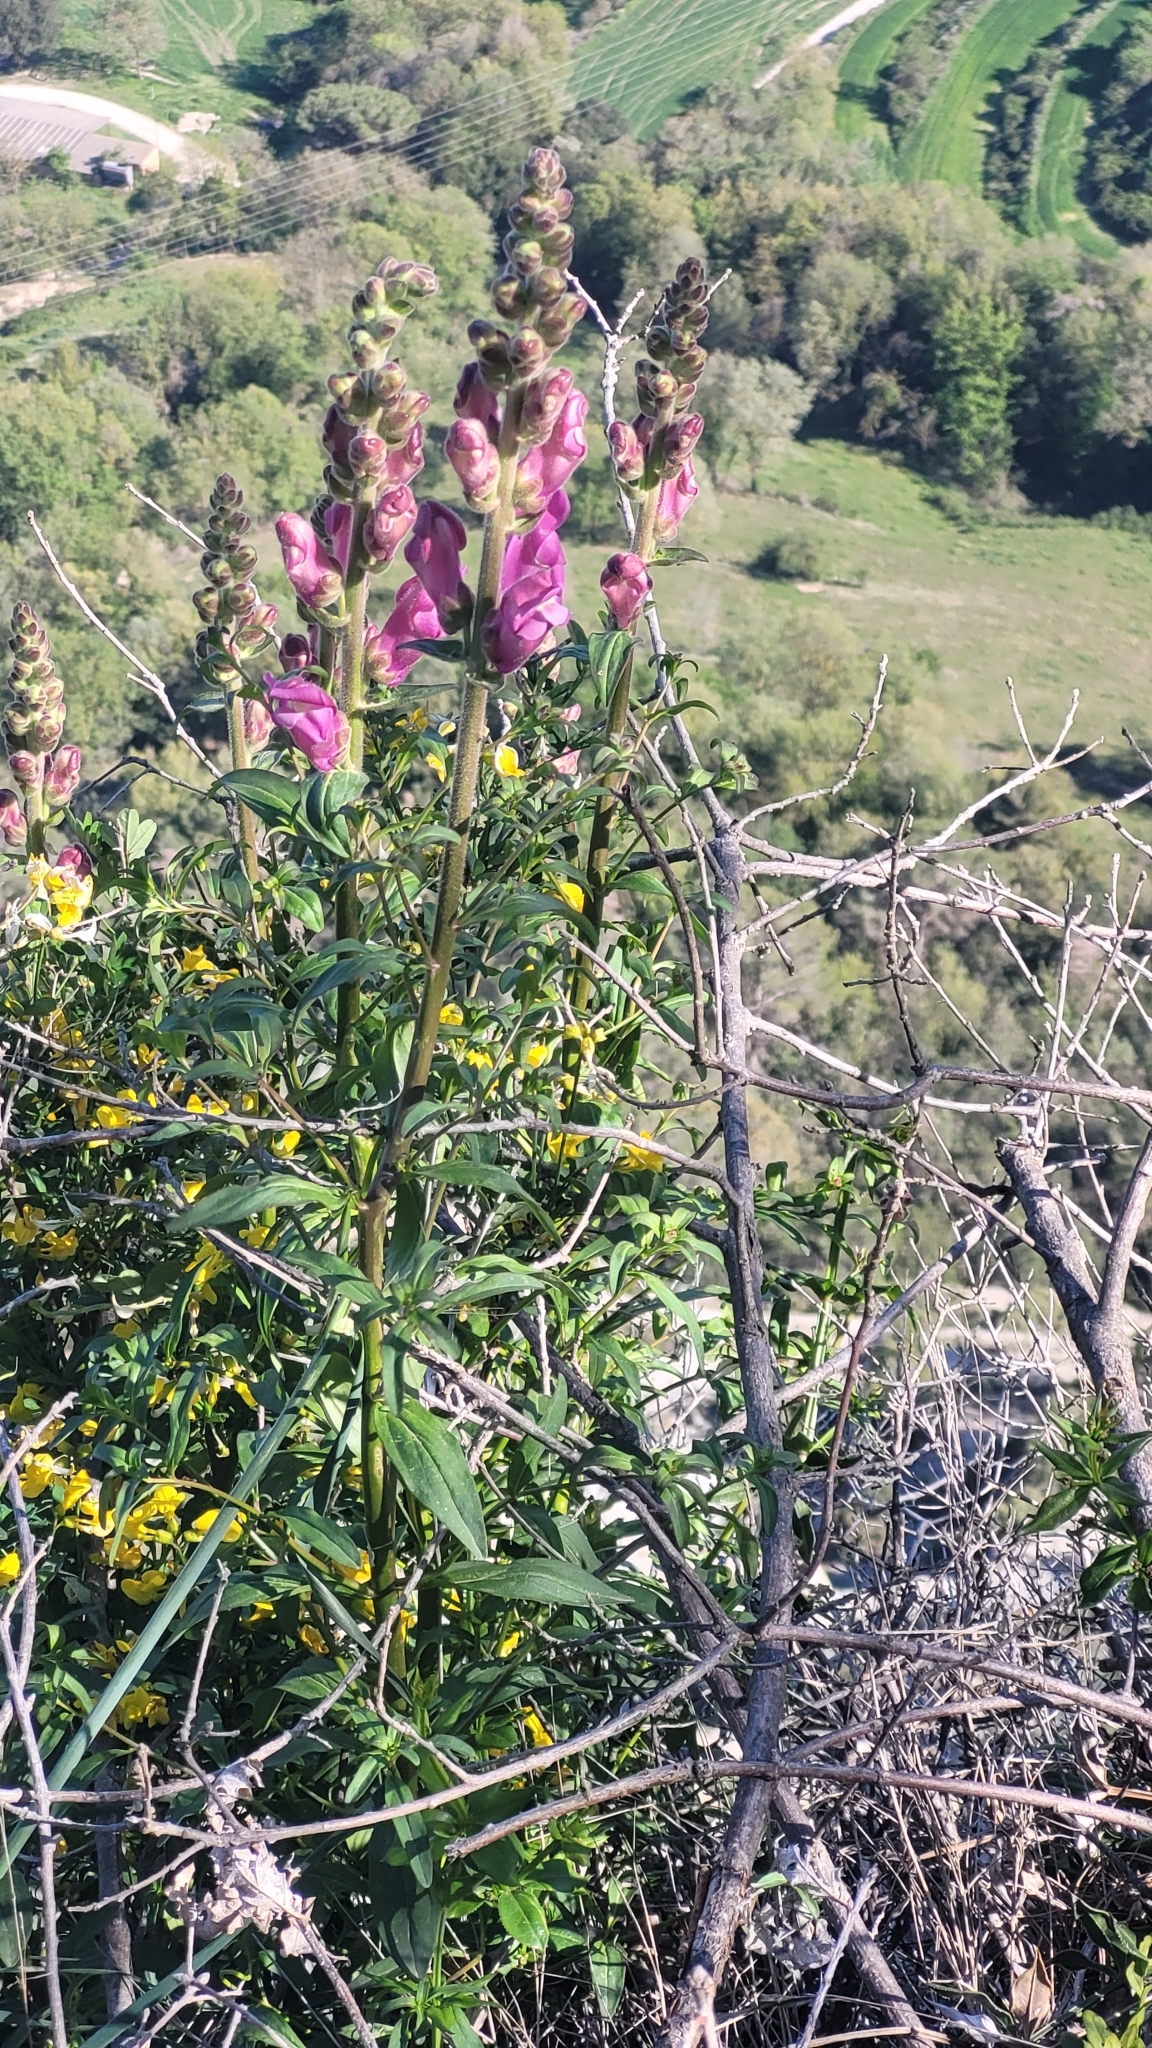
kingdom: Plantae
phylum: Tracheophyta
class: Magnoliopsida
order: Lamiales
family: Plantaginaceae
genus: Antirrhinum
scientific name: Antirrhinum majus
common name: Snapdragon
